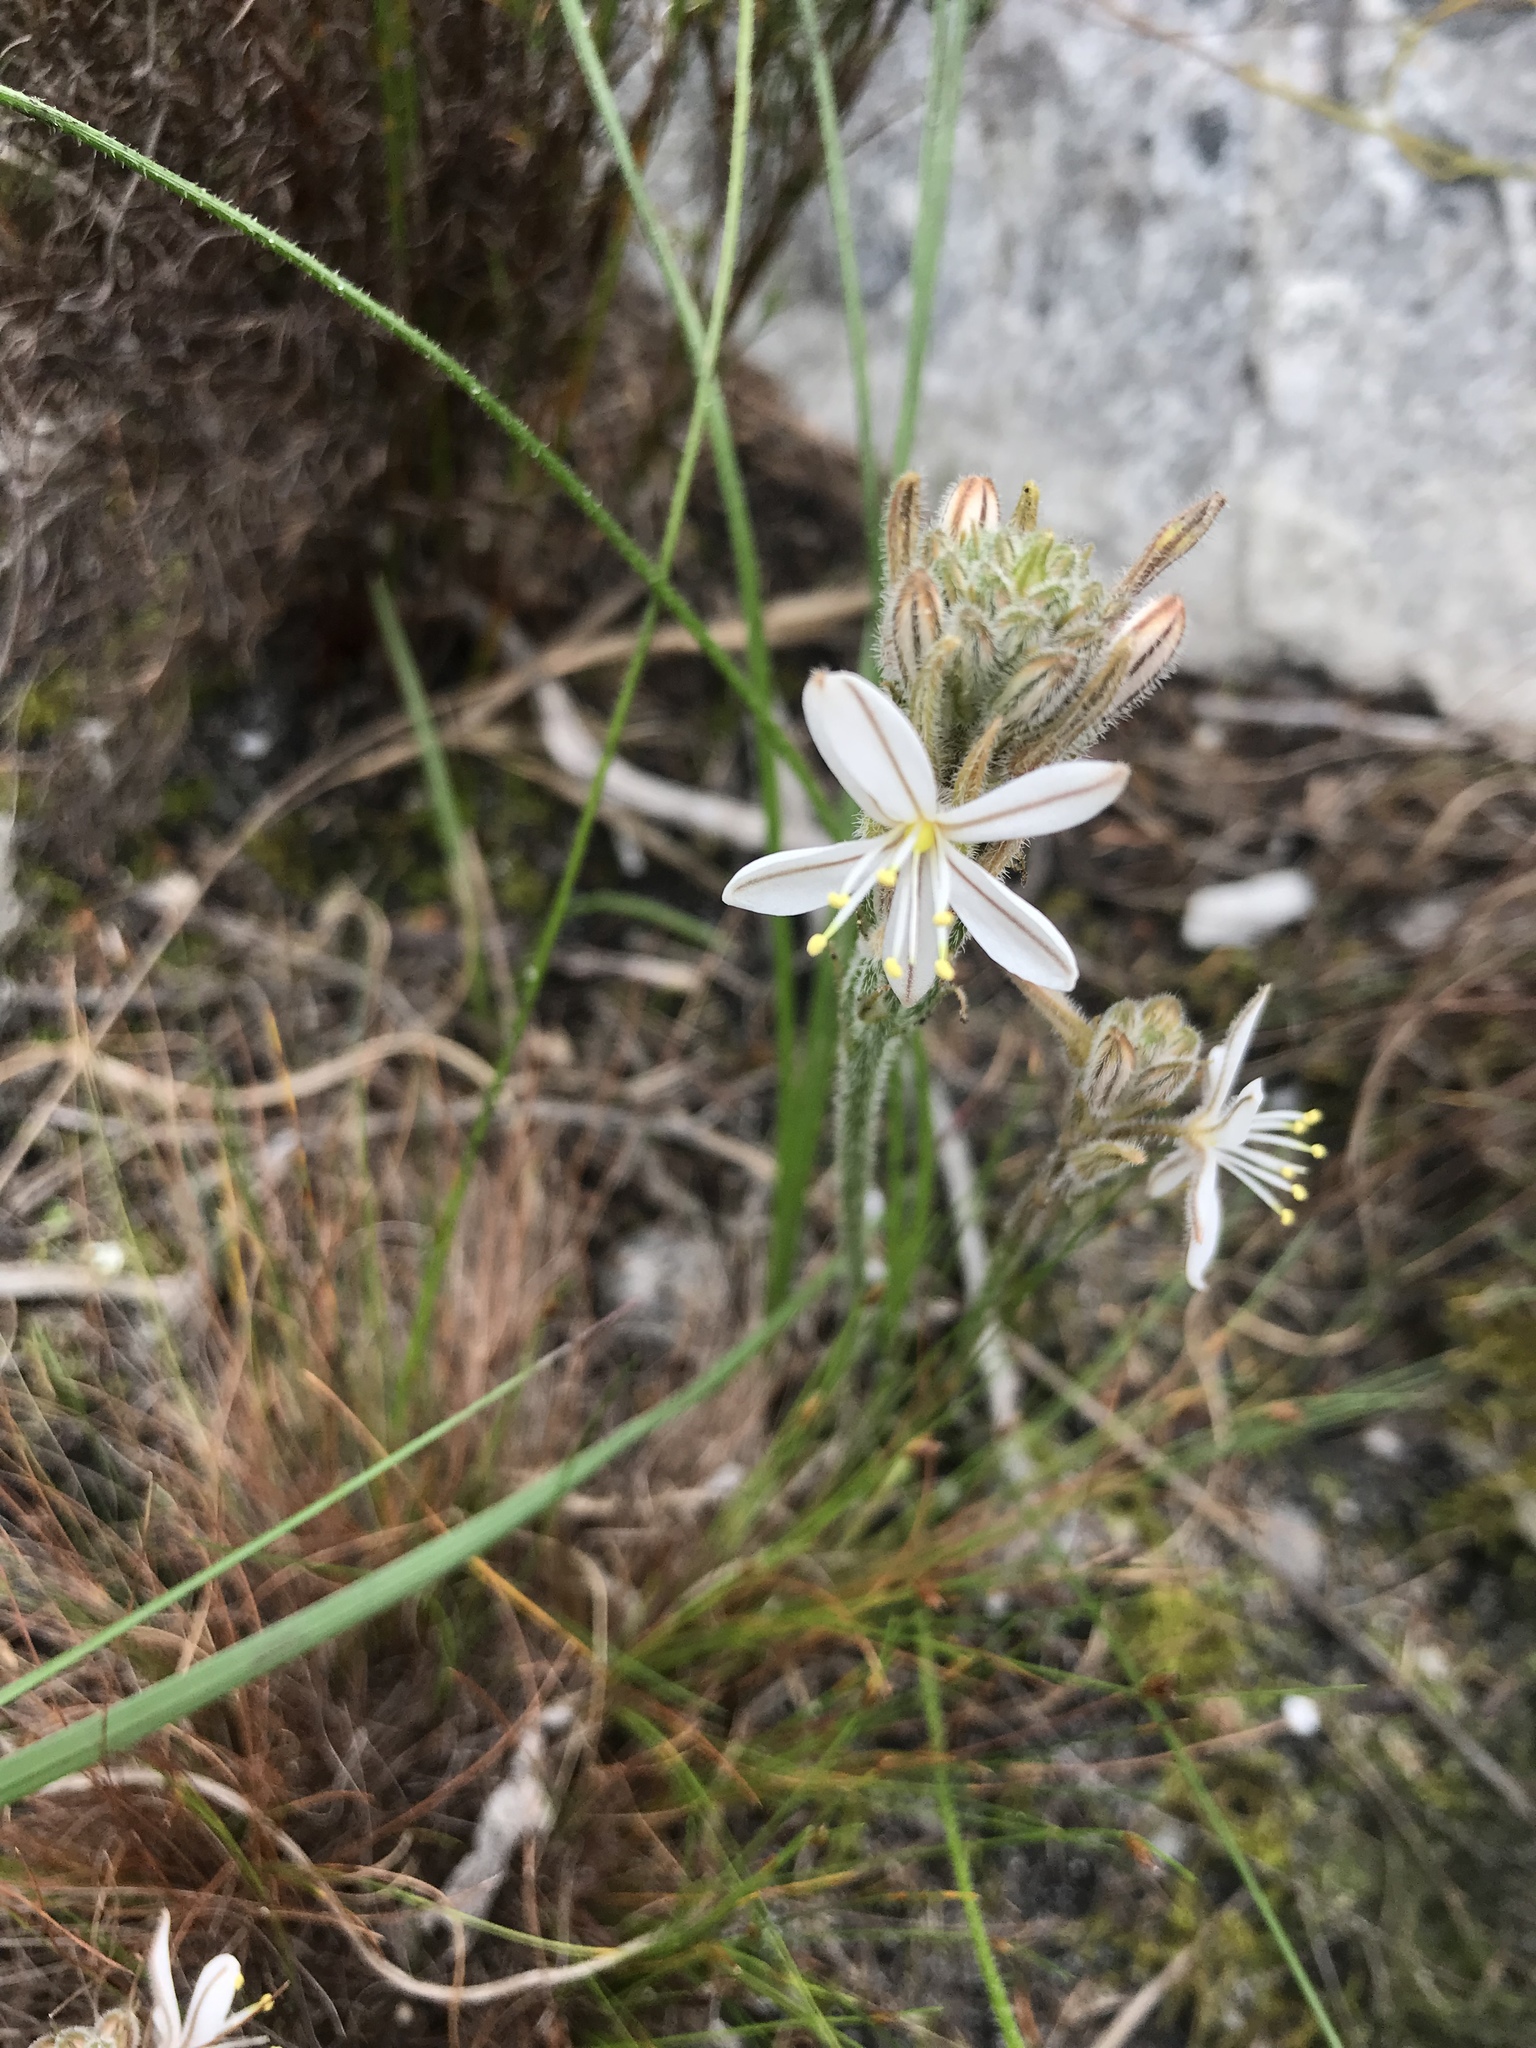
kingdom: Plantae
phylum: Tracheophyta
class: Liliopsida
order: Asparagales
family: Asphodelaceae
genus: Trachyandra
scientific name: Trachyandra hirsutiflora
